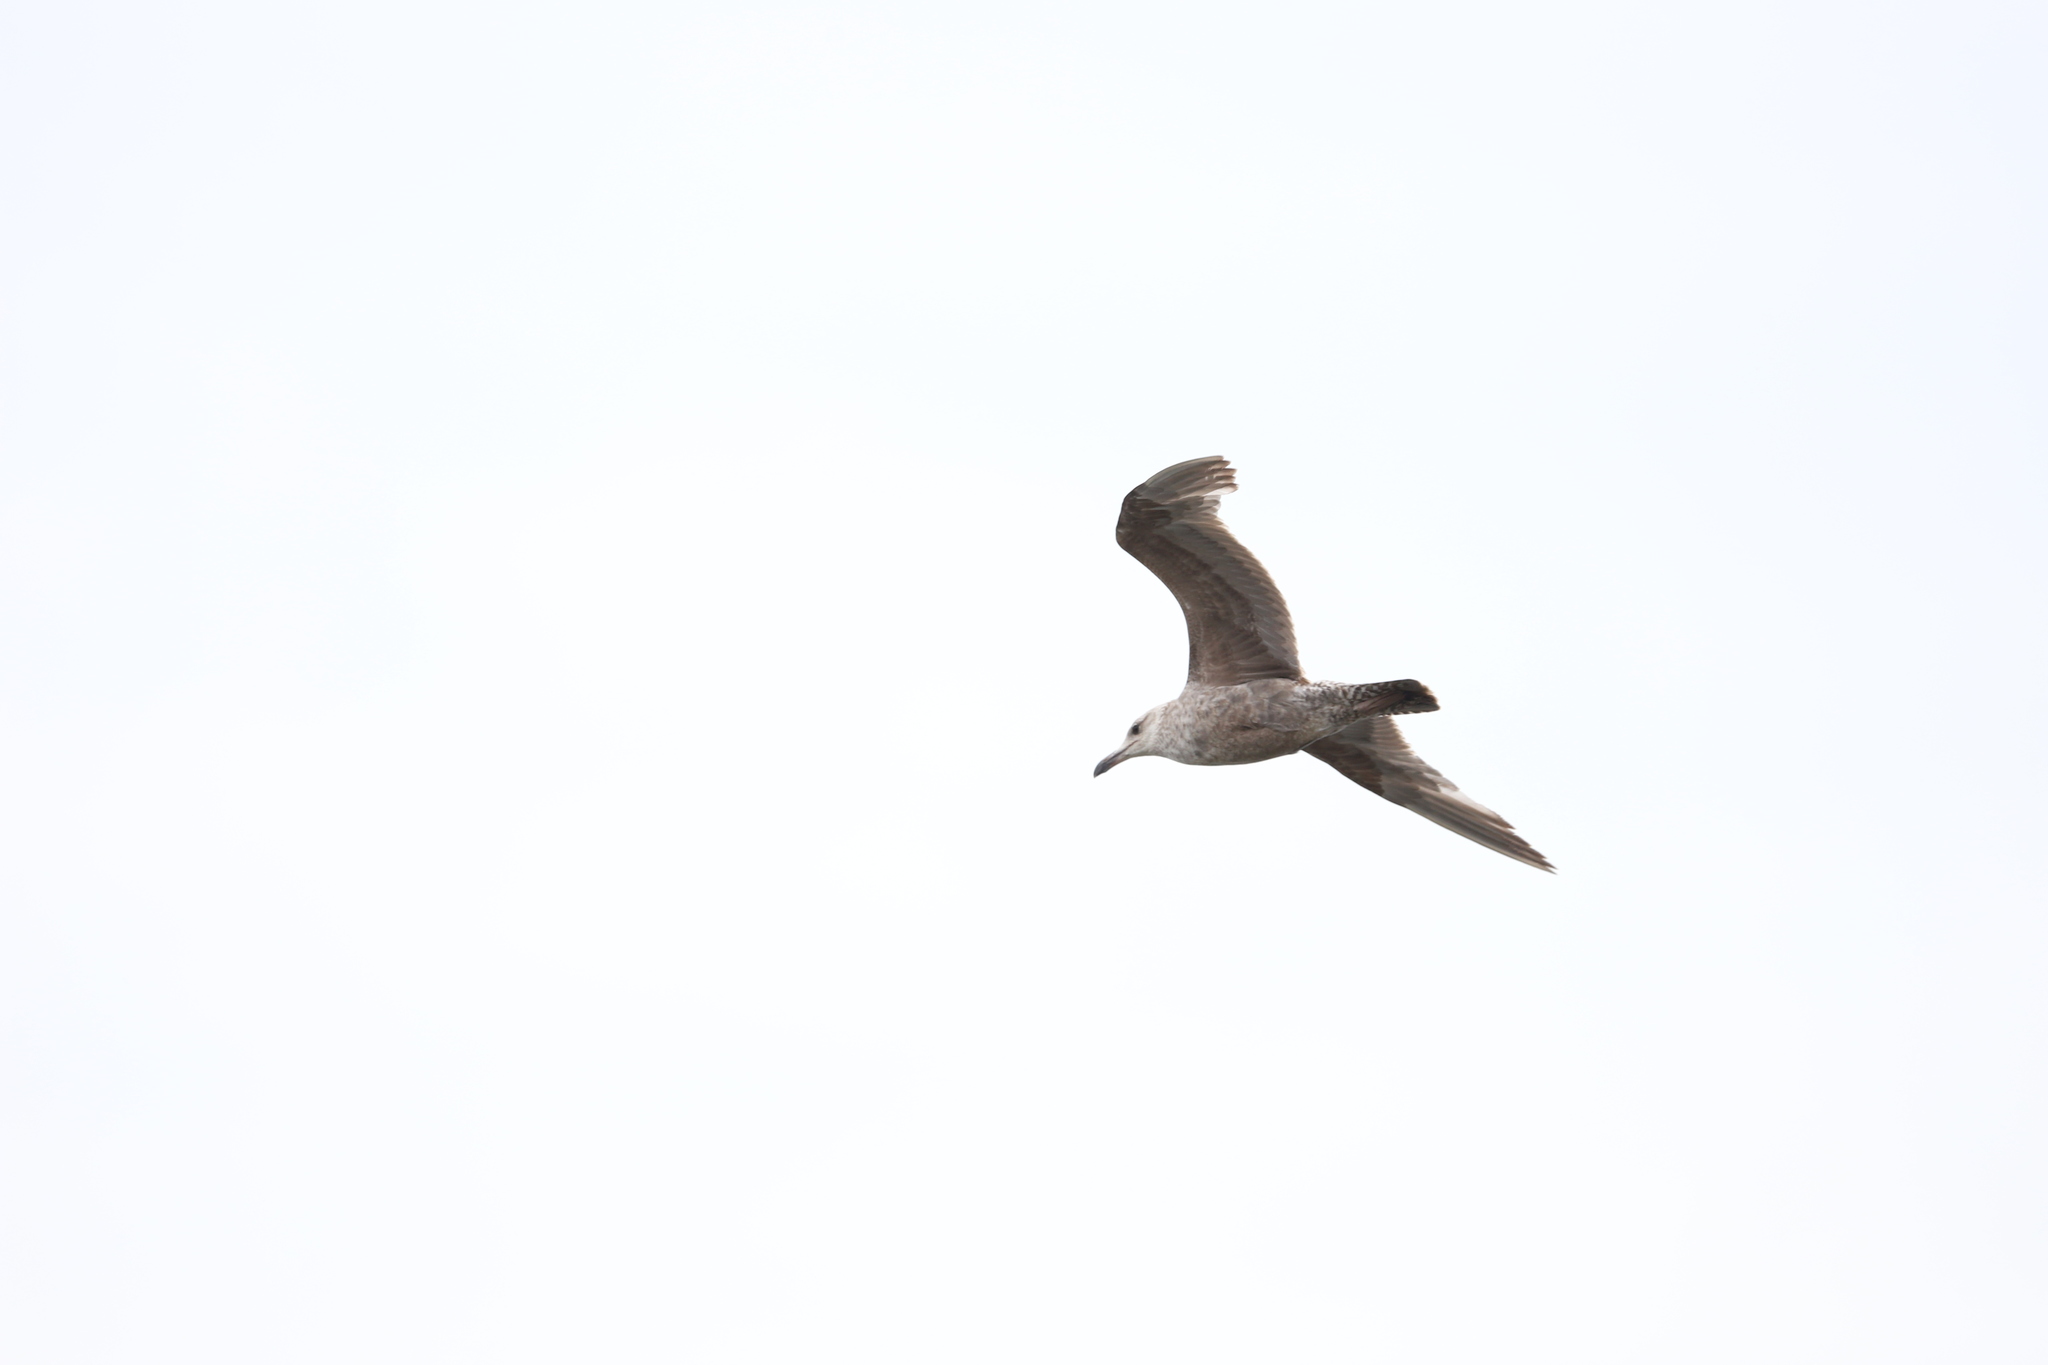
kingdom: Animalia
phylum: Chordata
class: Aves
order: Charadriiformes
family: Laridae
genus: Larus
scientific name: Larus argentatus
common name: Herring gull
